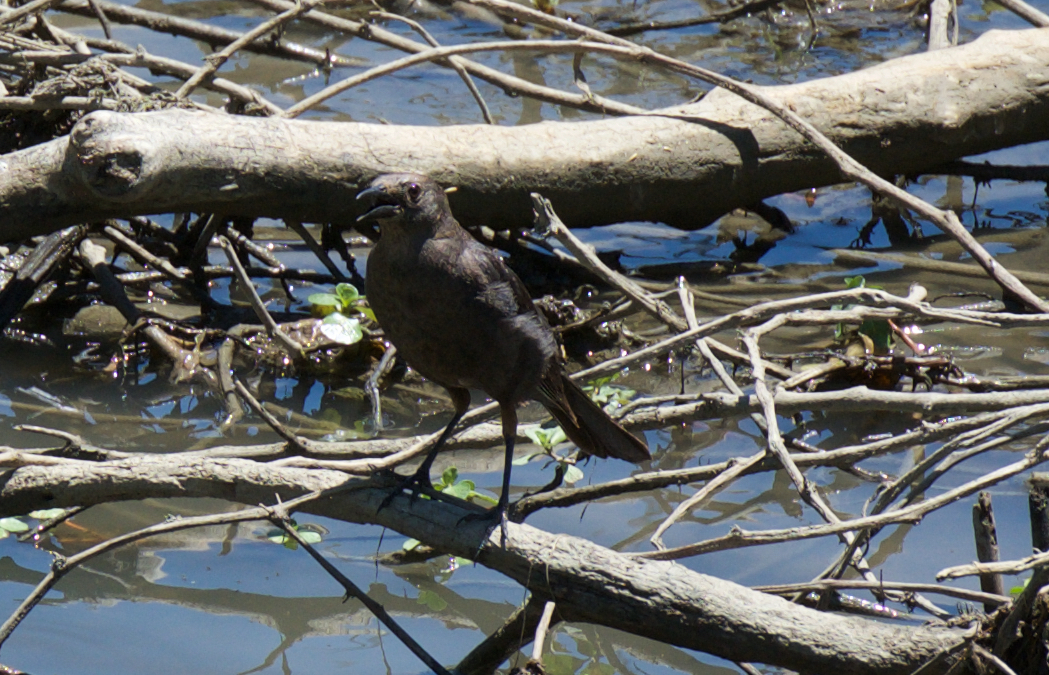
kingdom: Animalia
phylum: Chordata
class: Aves
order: Passeriformes
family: Icteridae
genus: Euphagus
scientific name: Euphagus cyanocephalus
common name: Brewer's blackbird
